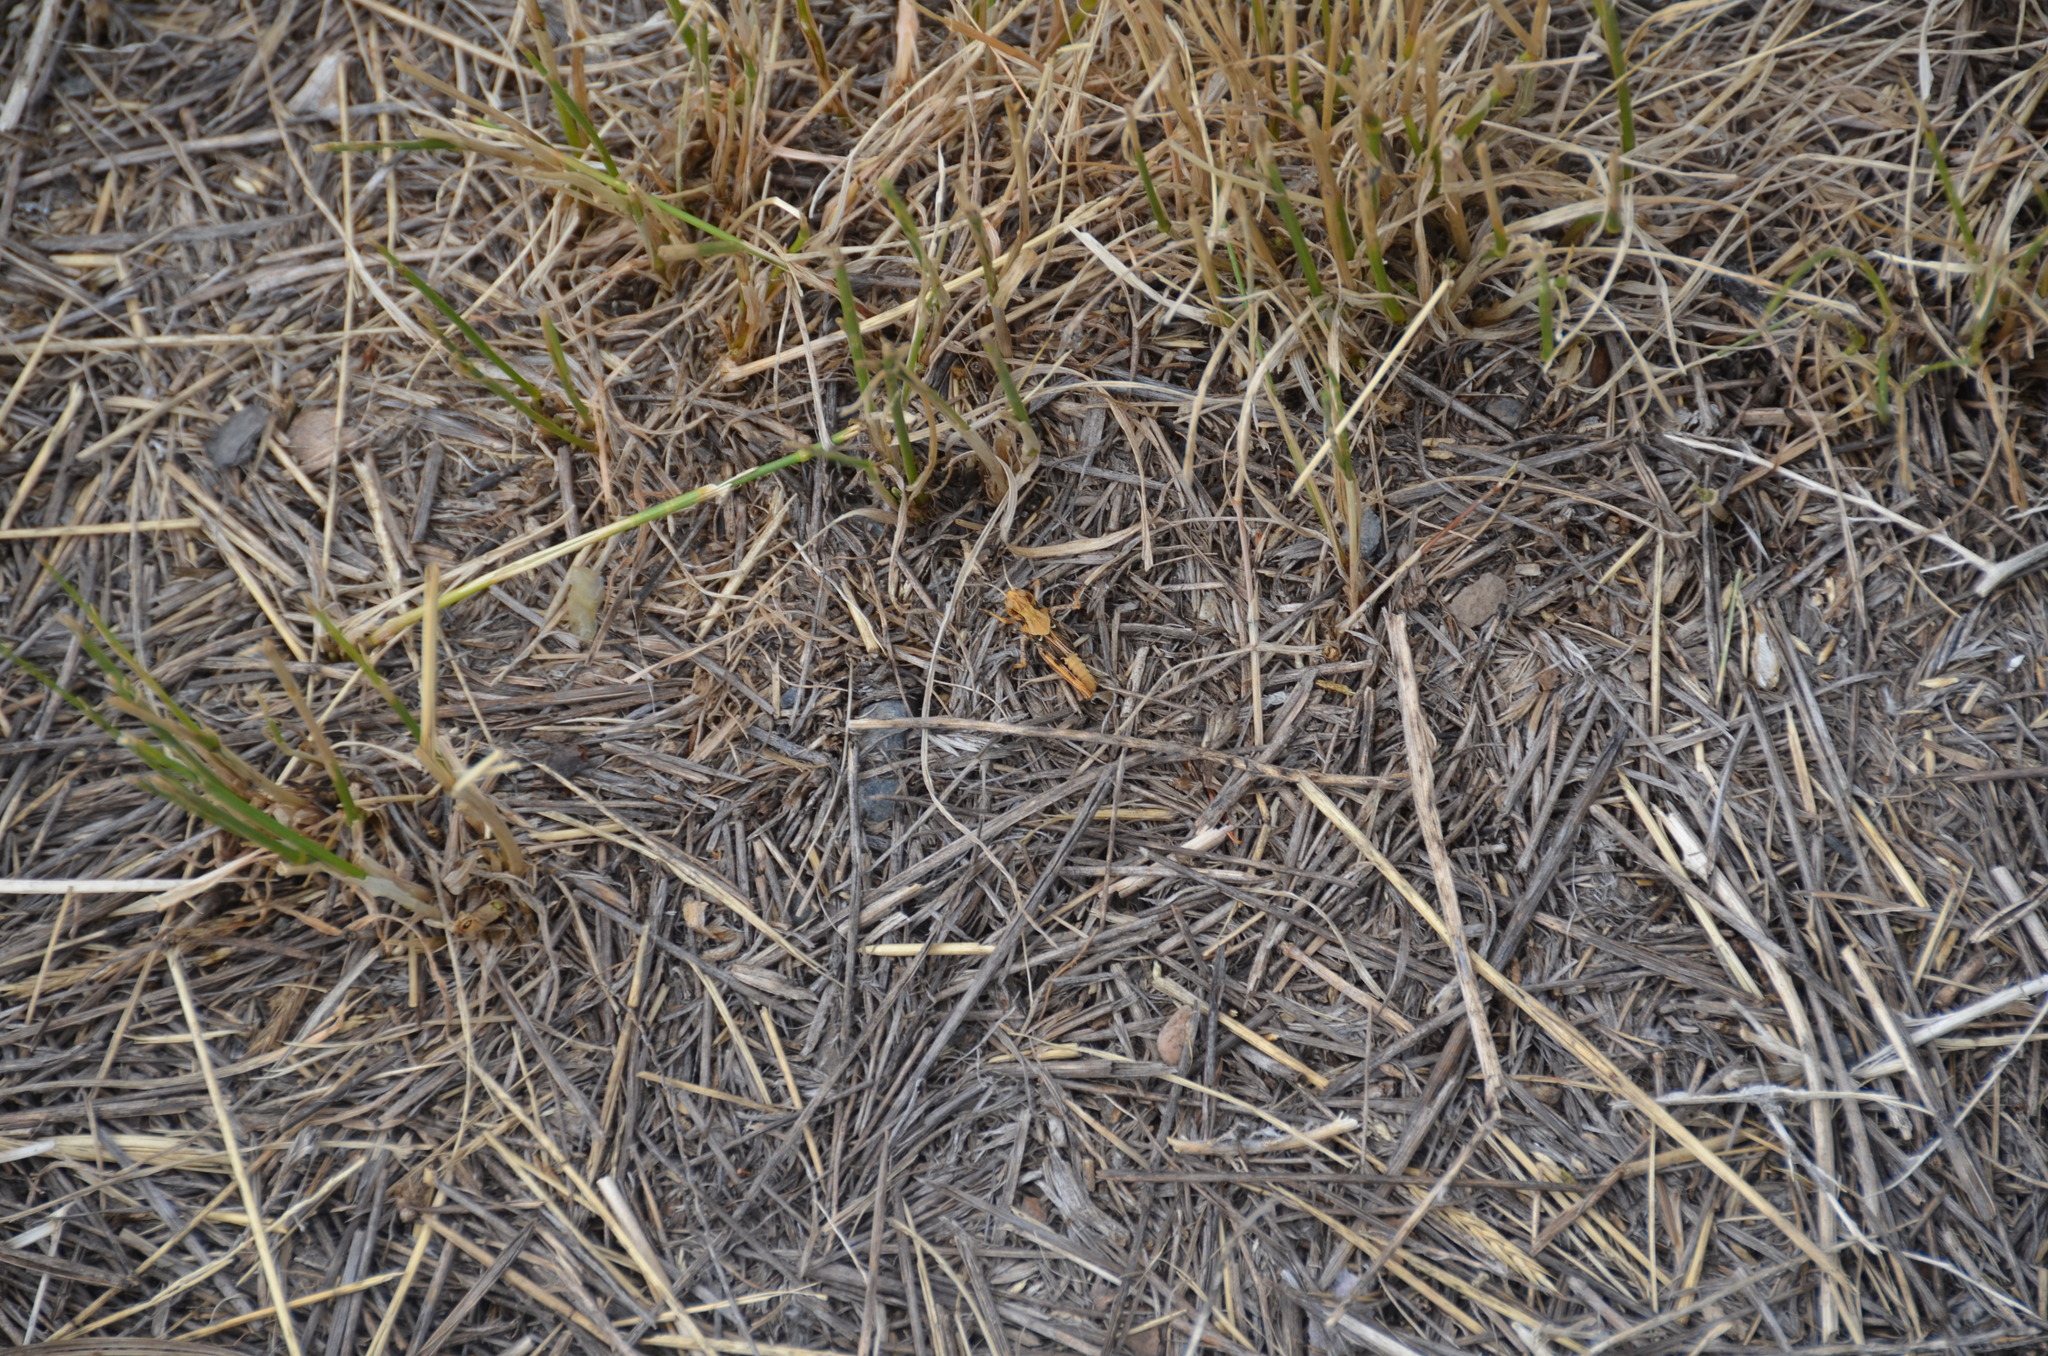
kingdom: Animalia
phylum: Arthropoda
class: Insecta
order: Orthoptera
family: Acrididae
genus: Camnula
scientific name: Camnula pellucida
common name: Clear-winged grasshopper
